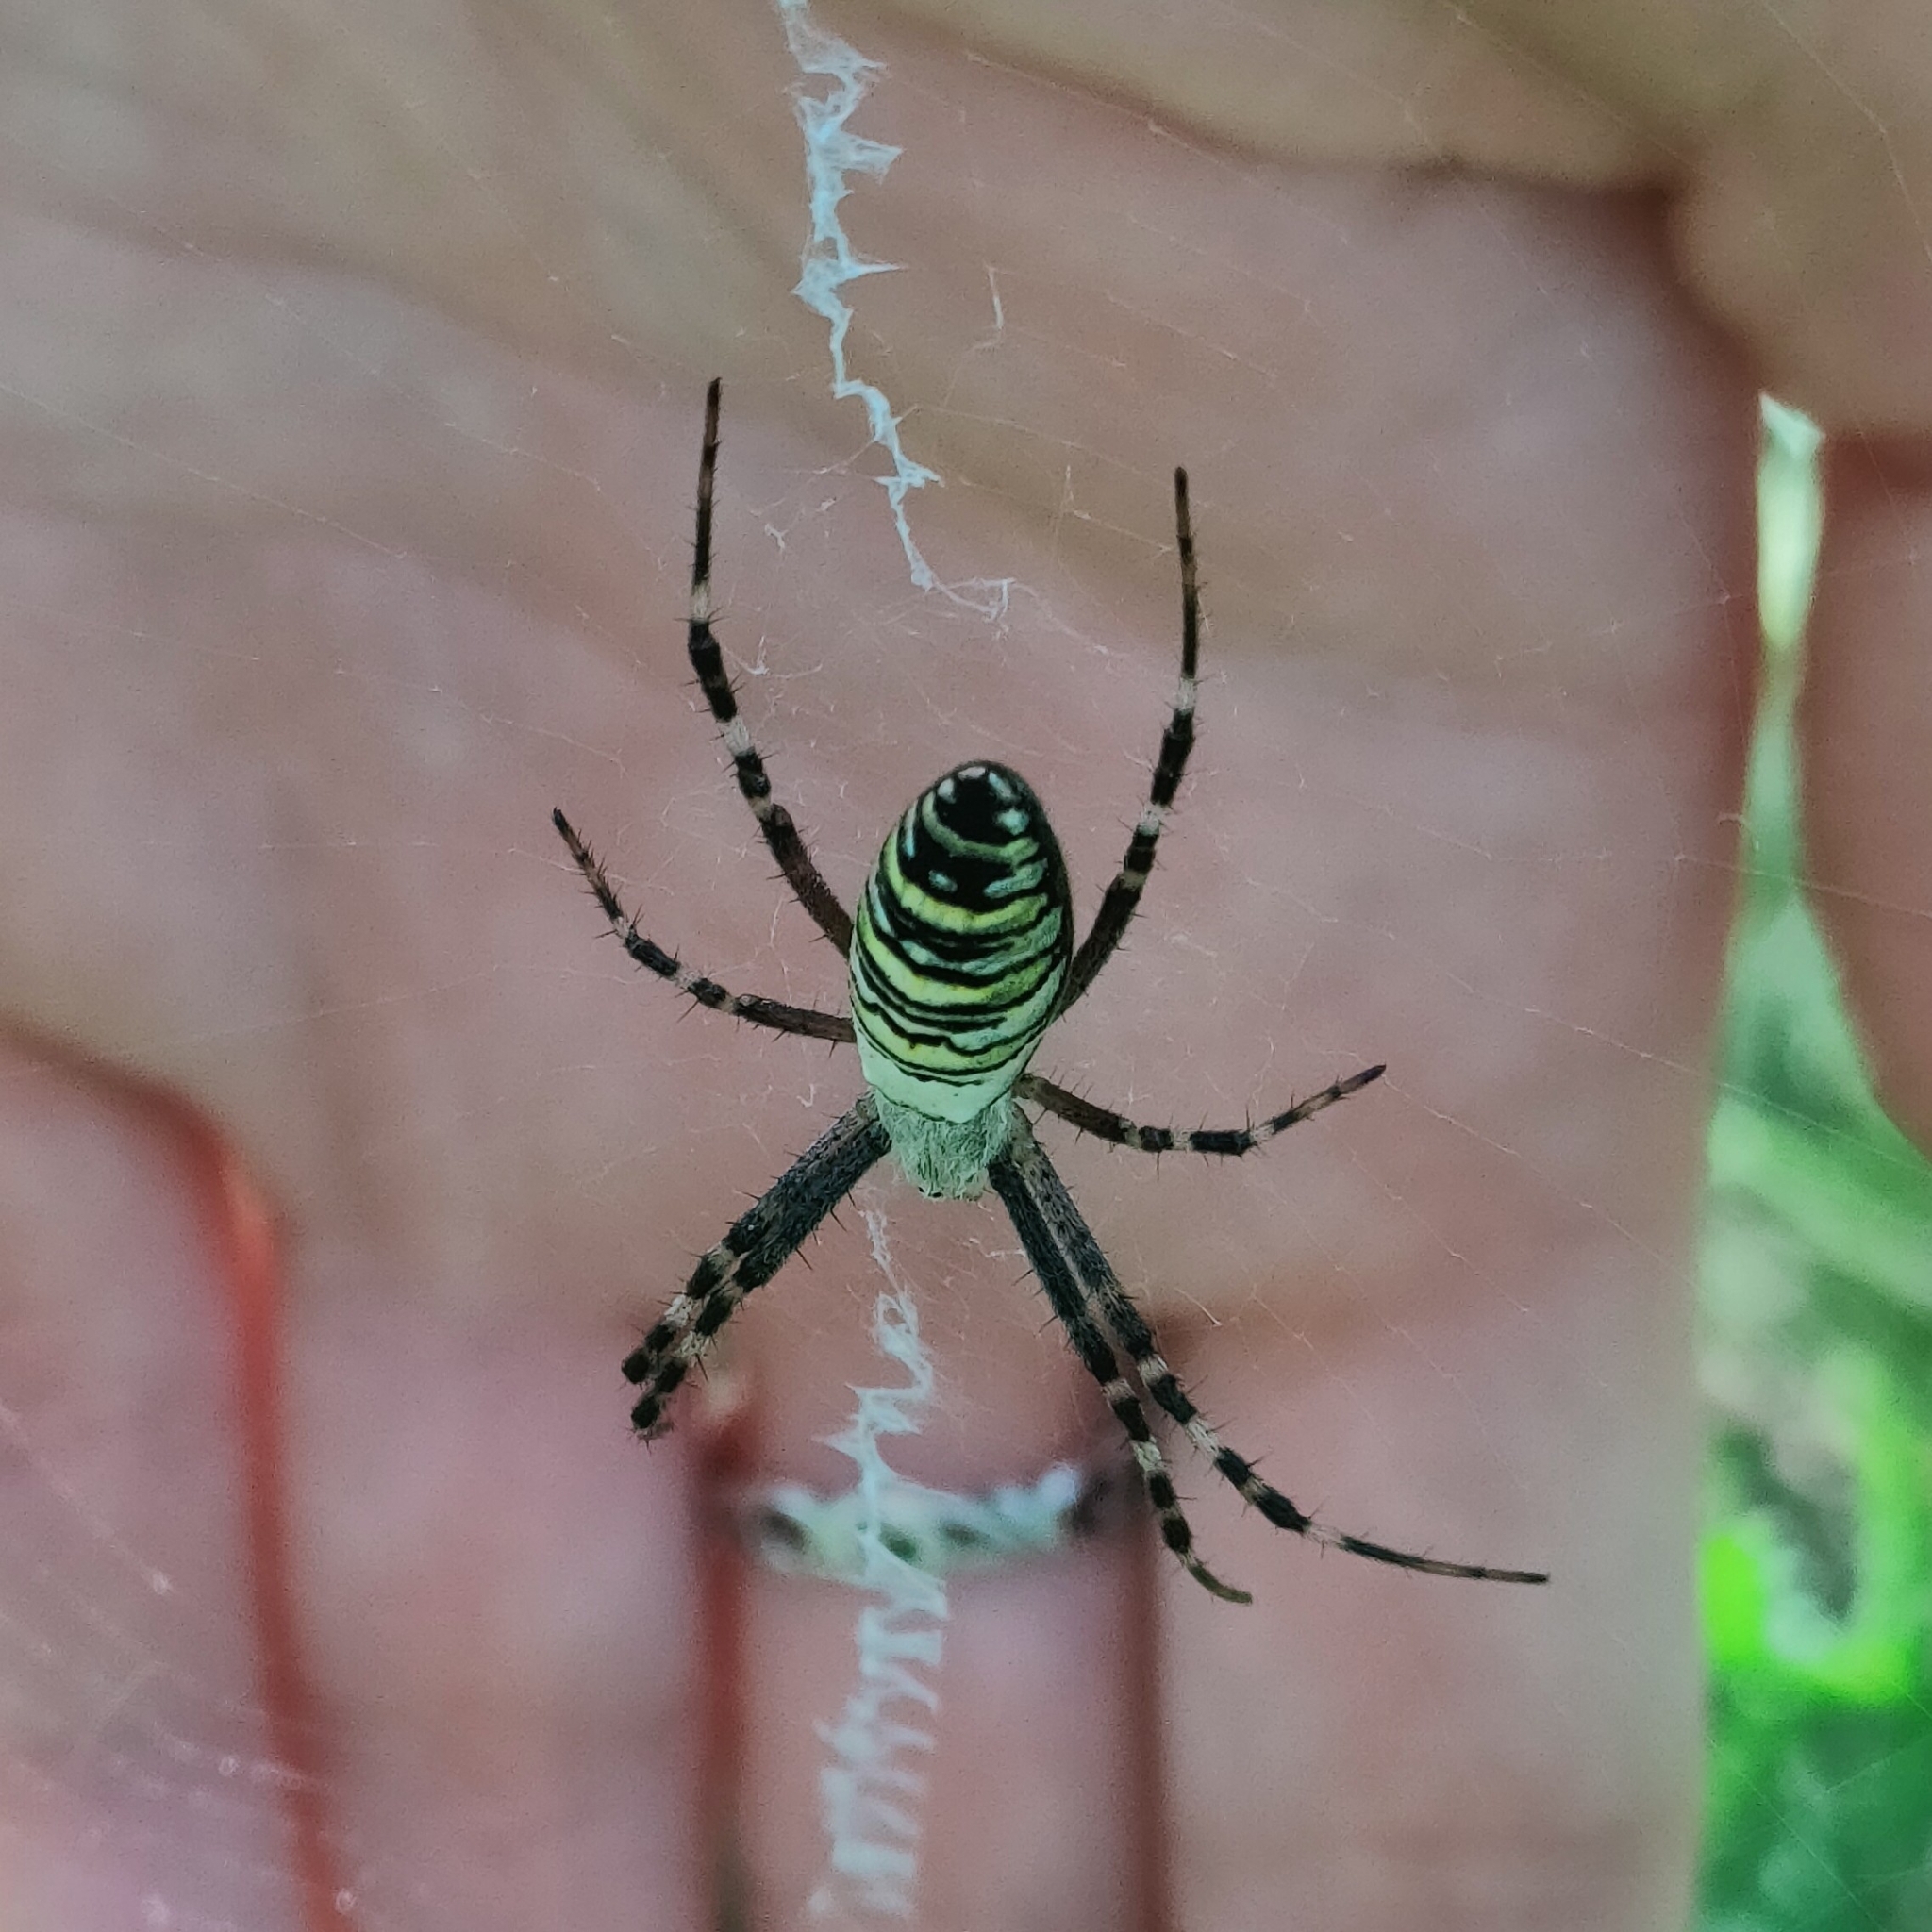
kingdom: Animalia
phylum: Arthropoda
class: Arachnida
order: Araneae
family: Araneidae
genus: Argiope
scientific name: Argiope bruennichi
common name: Wasp spider
